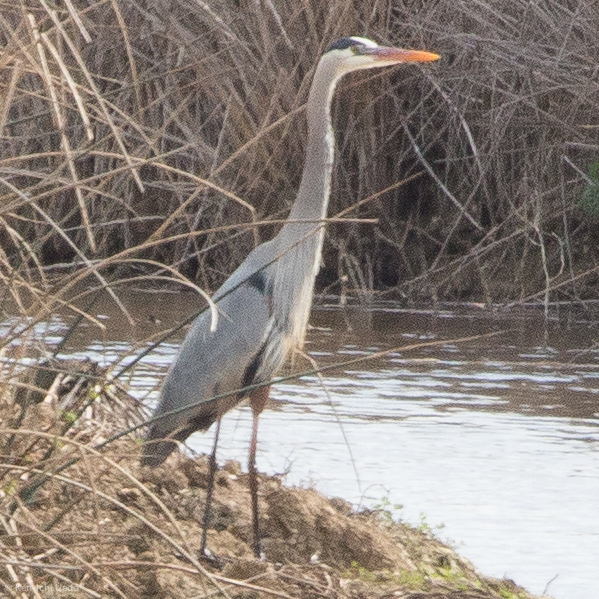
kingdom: Animalia
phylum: Chordata
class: Aves
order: Pelecaniformes
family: Ardeidae
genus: Ardea
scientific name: Ardea herodias
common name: Great blue heron
